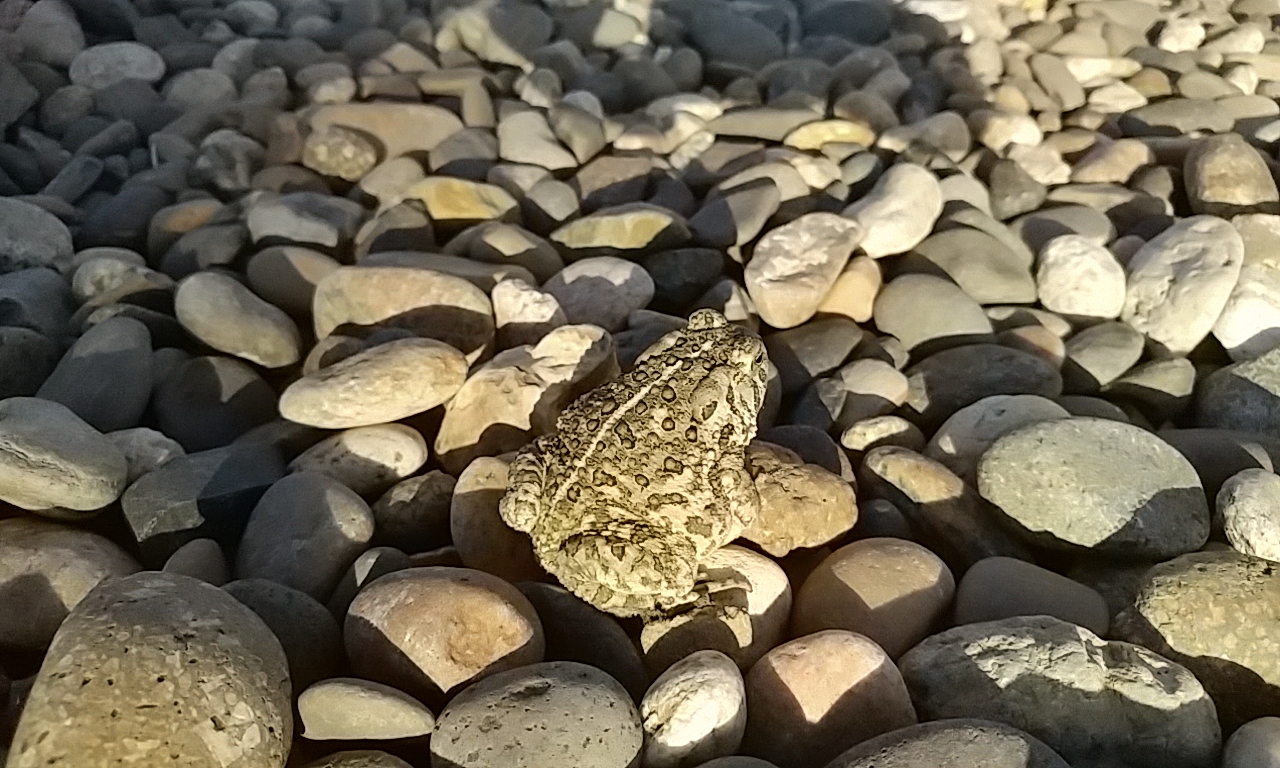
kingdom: Animalia
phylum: Chordata
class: Amphibia
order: Anura
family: Bufonidae
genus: Anaxyrus
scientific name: Anaxyrus woodhousii
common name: Woodhouse's toad
